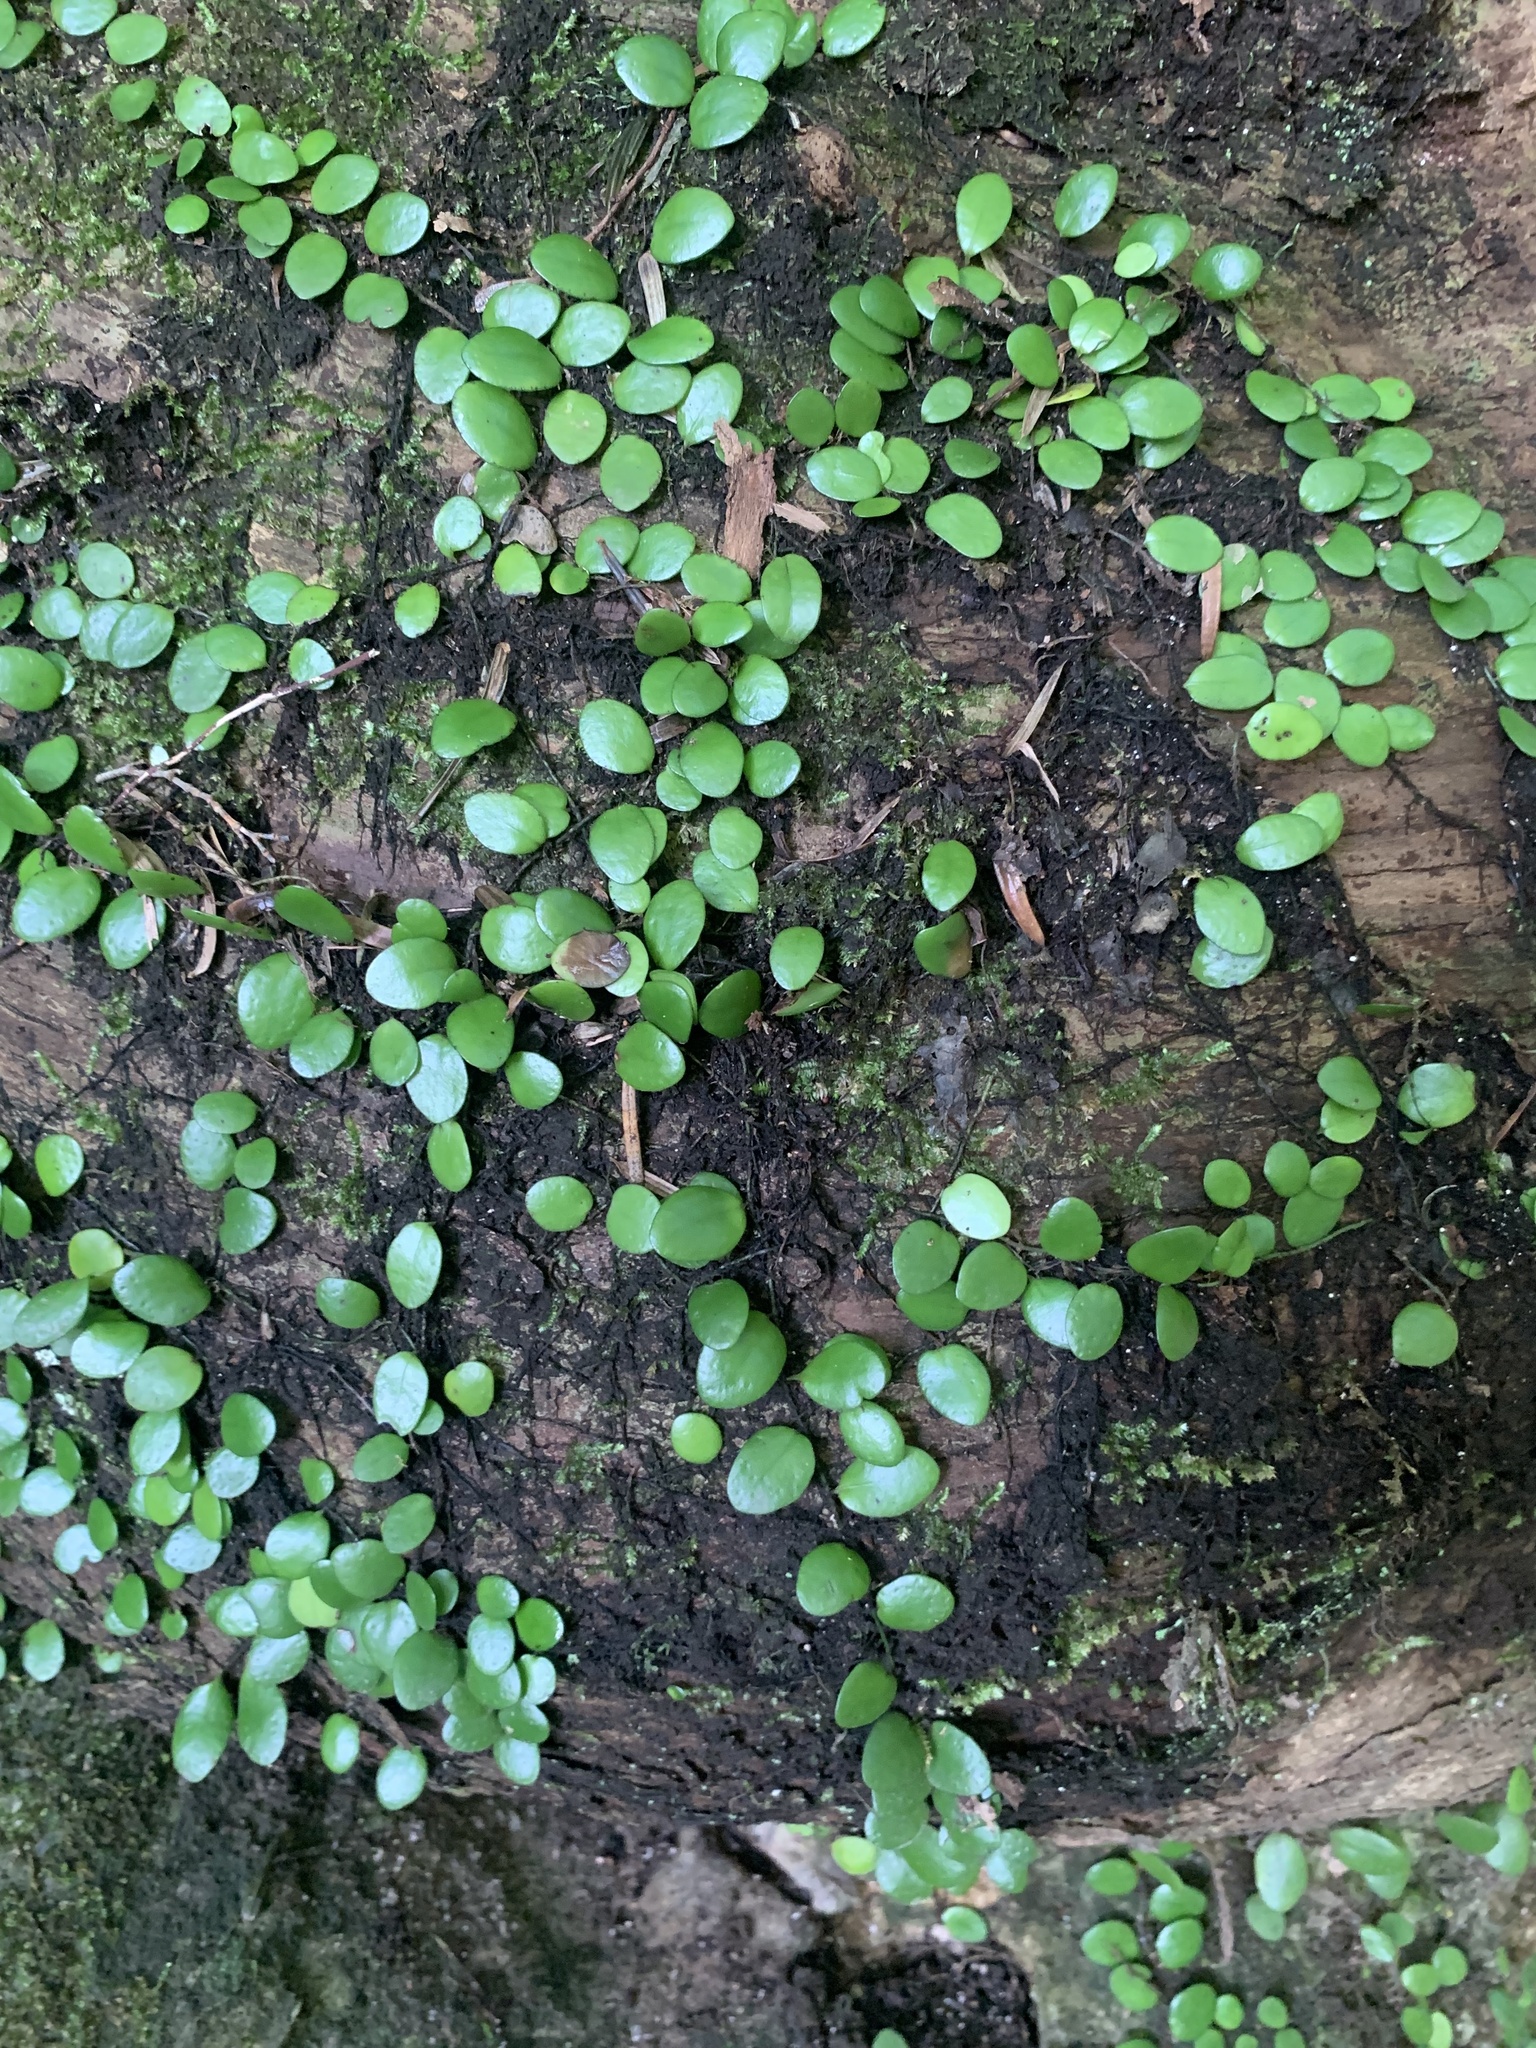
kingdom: Plantae
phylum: Tracheophyta
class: Polypodiopsida
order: Polypodiales
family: Polypodiaceae
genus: Lepisorus
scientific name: Lepisorus microphyllus
